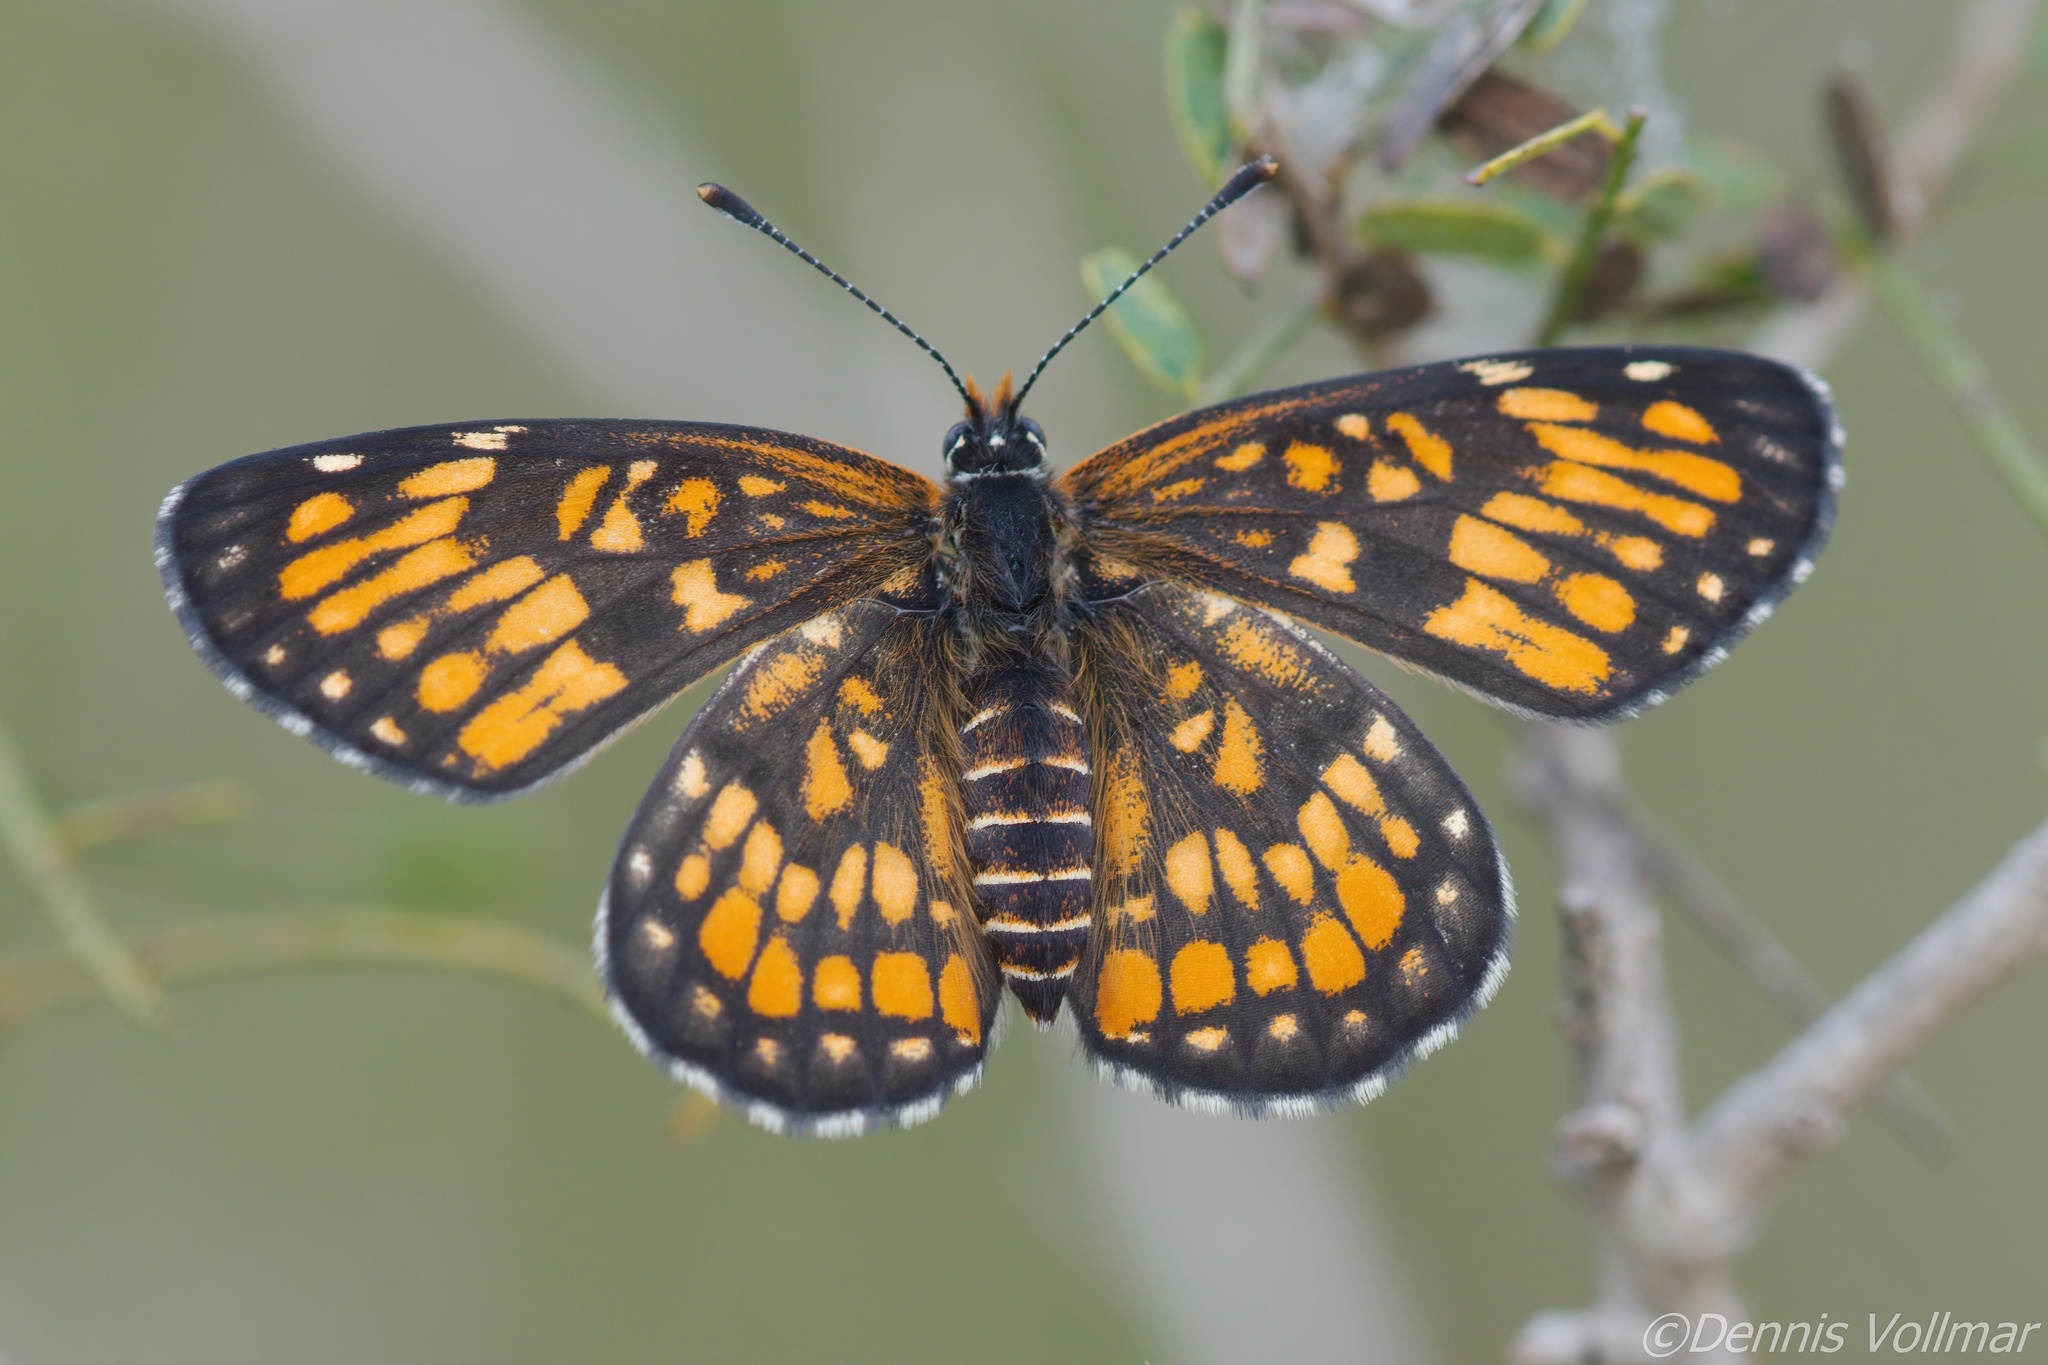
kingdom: Animalia
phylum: Arthropoda
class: Insecta
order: Lepidoptera
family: Nymphalidae
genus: Chlosyne
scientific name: Chlosyne definita
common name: Definite patch
